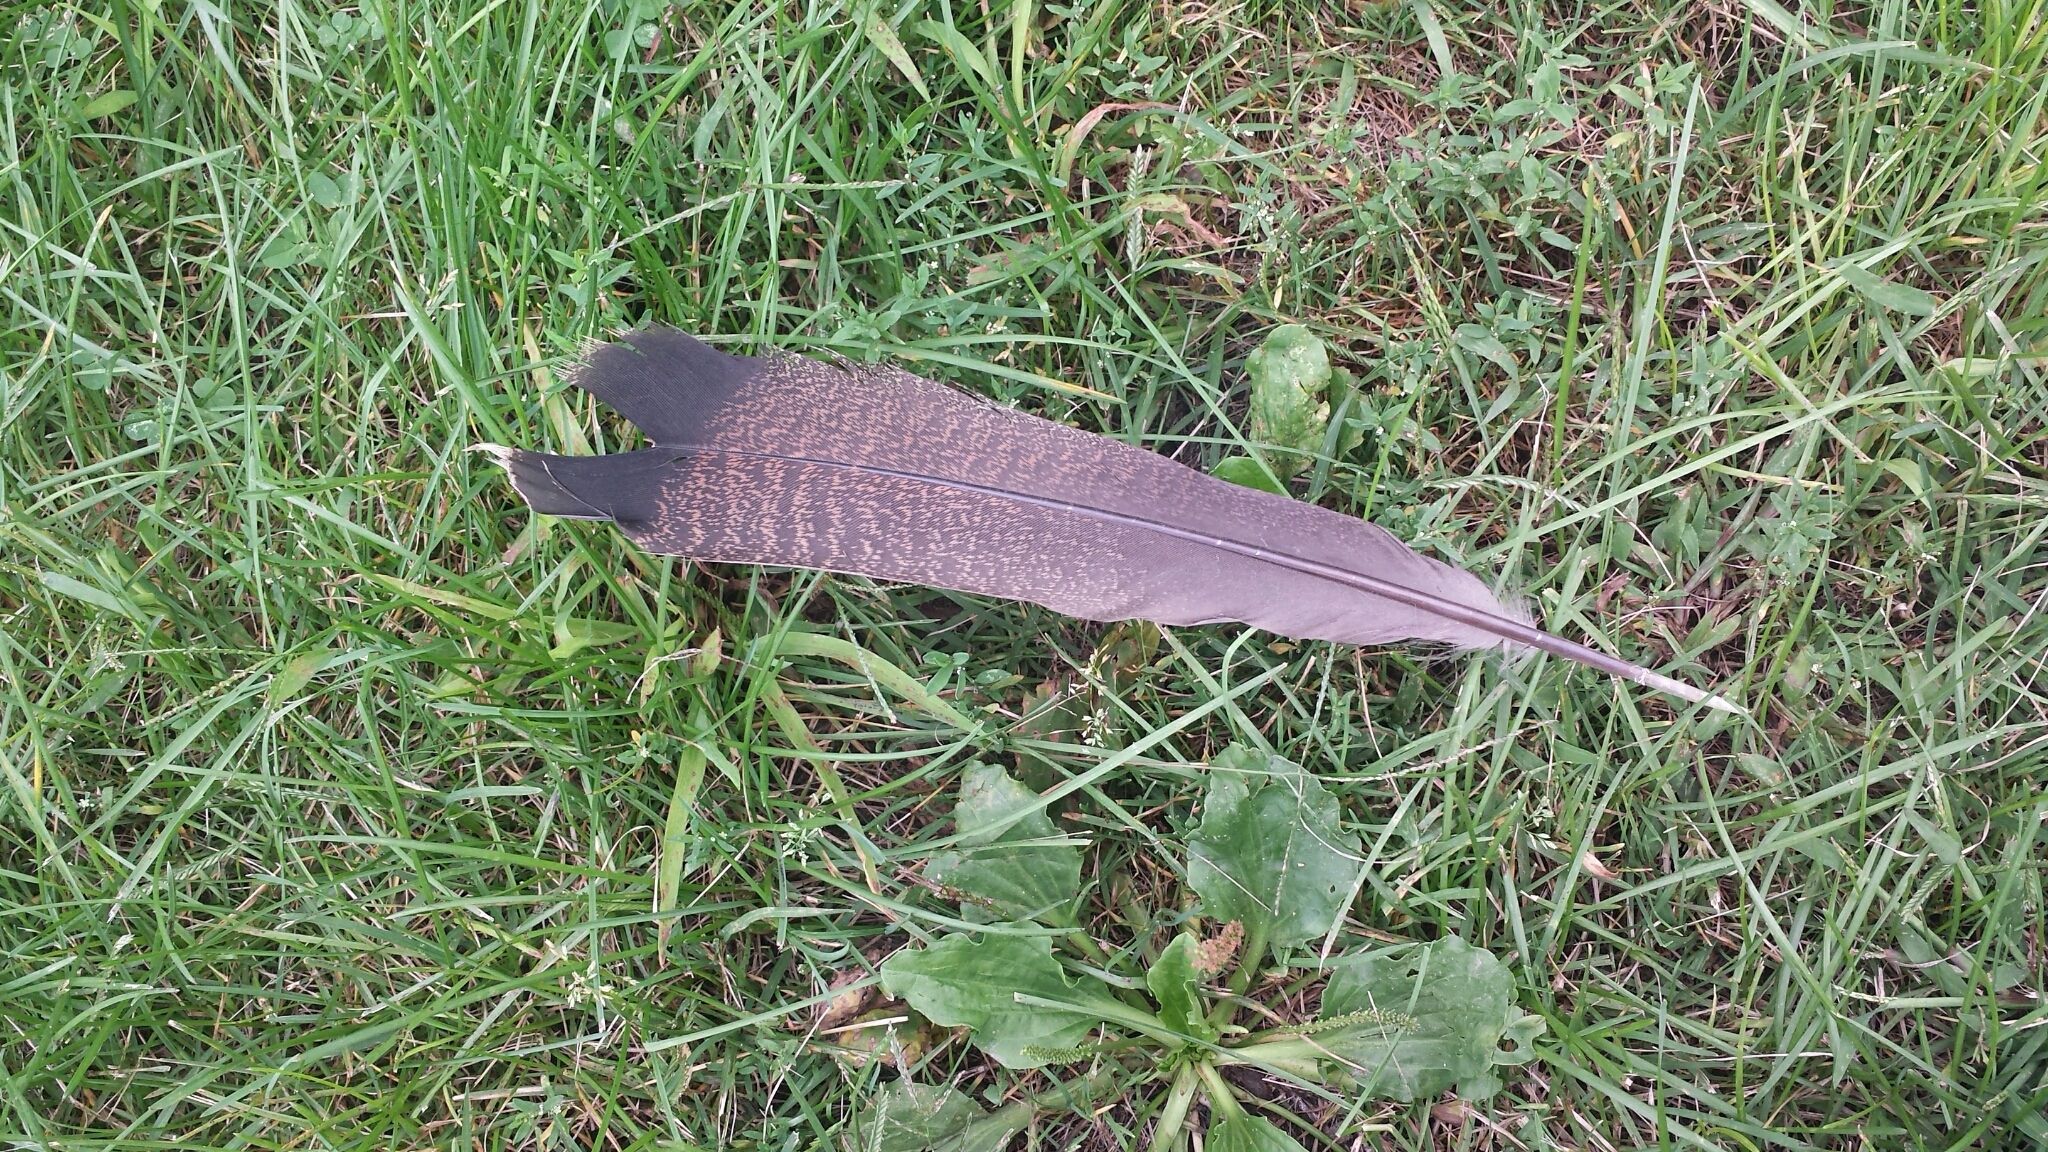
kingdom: Animalia
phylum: Chordata
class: Aves
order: Galliformes
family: Phasianidae
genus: Meleagris
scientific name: Meleagris gallopavo
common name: Wild turkey
